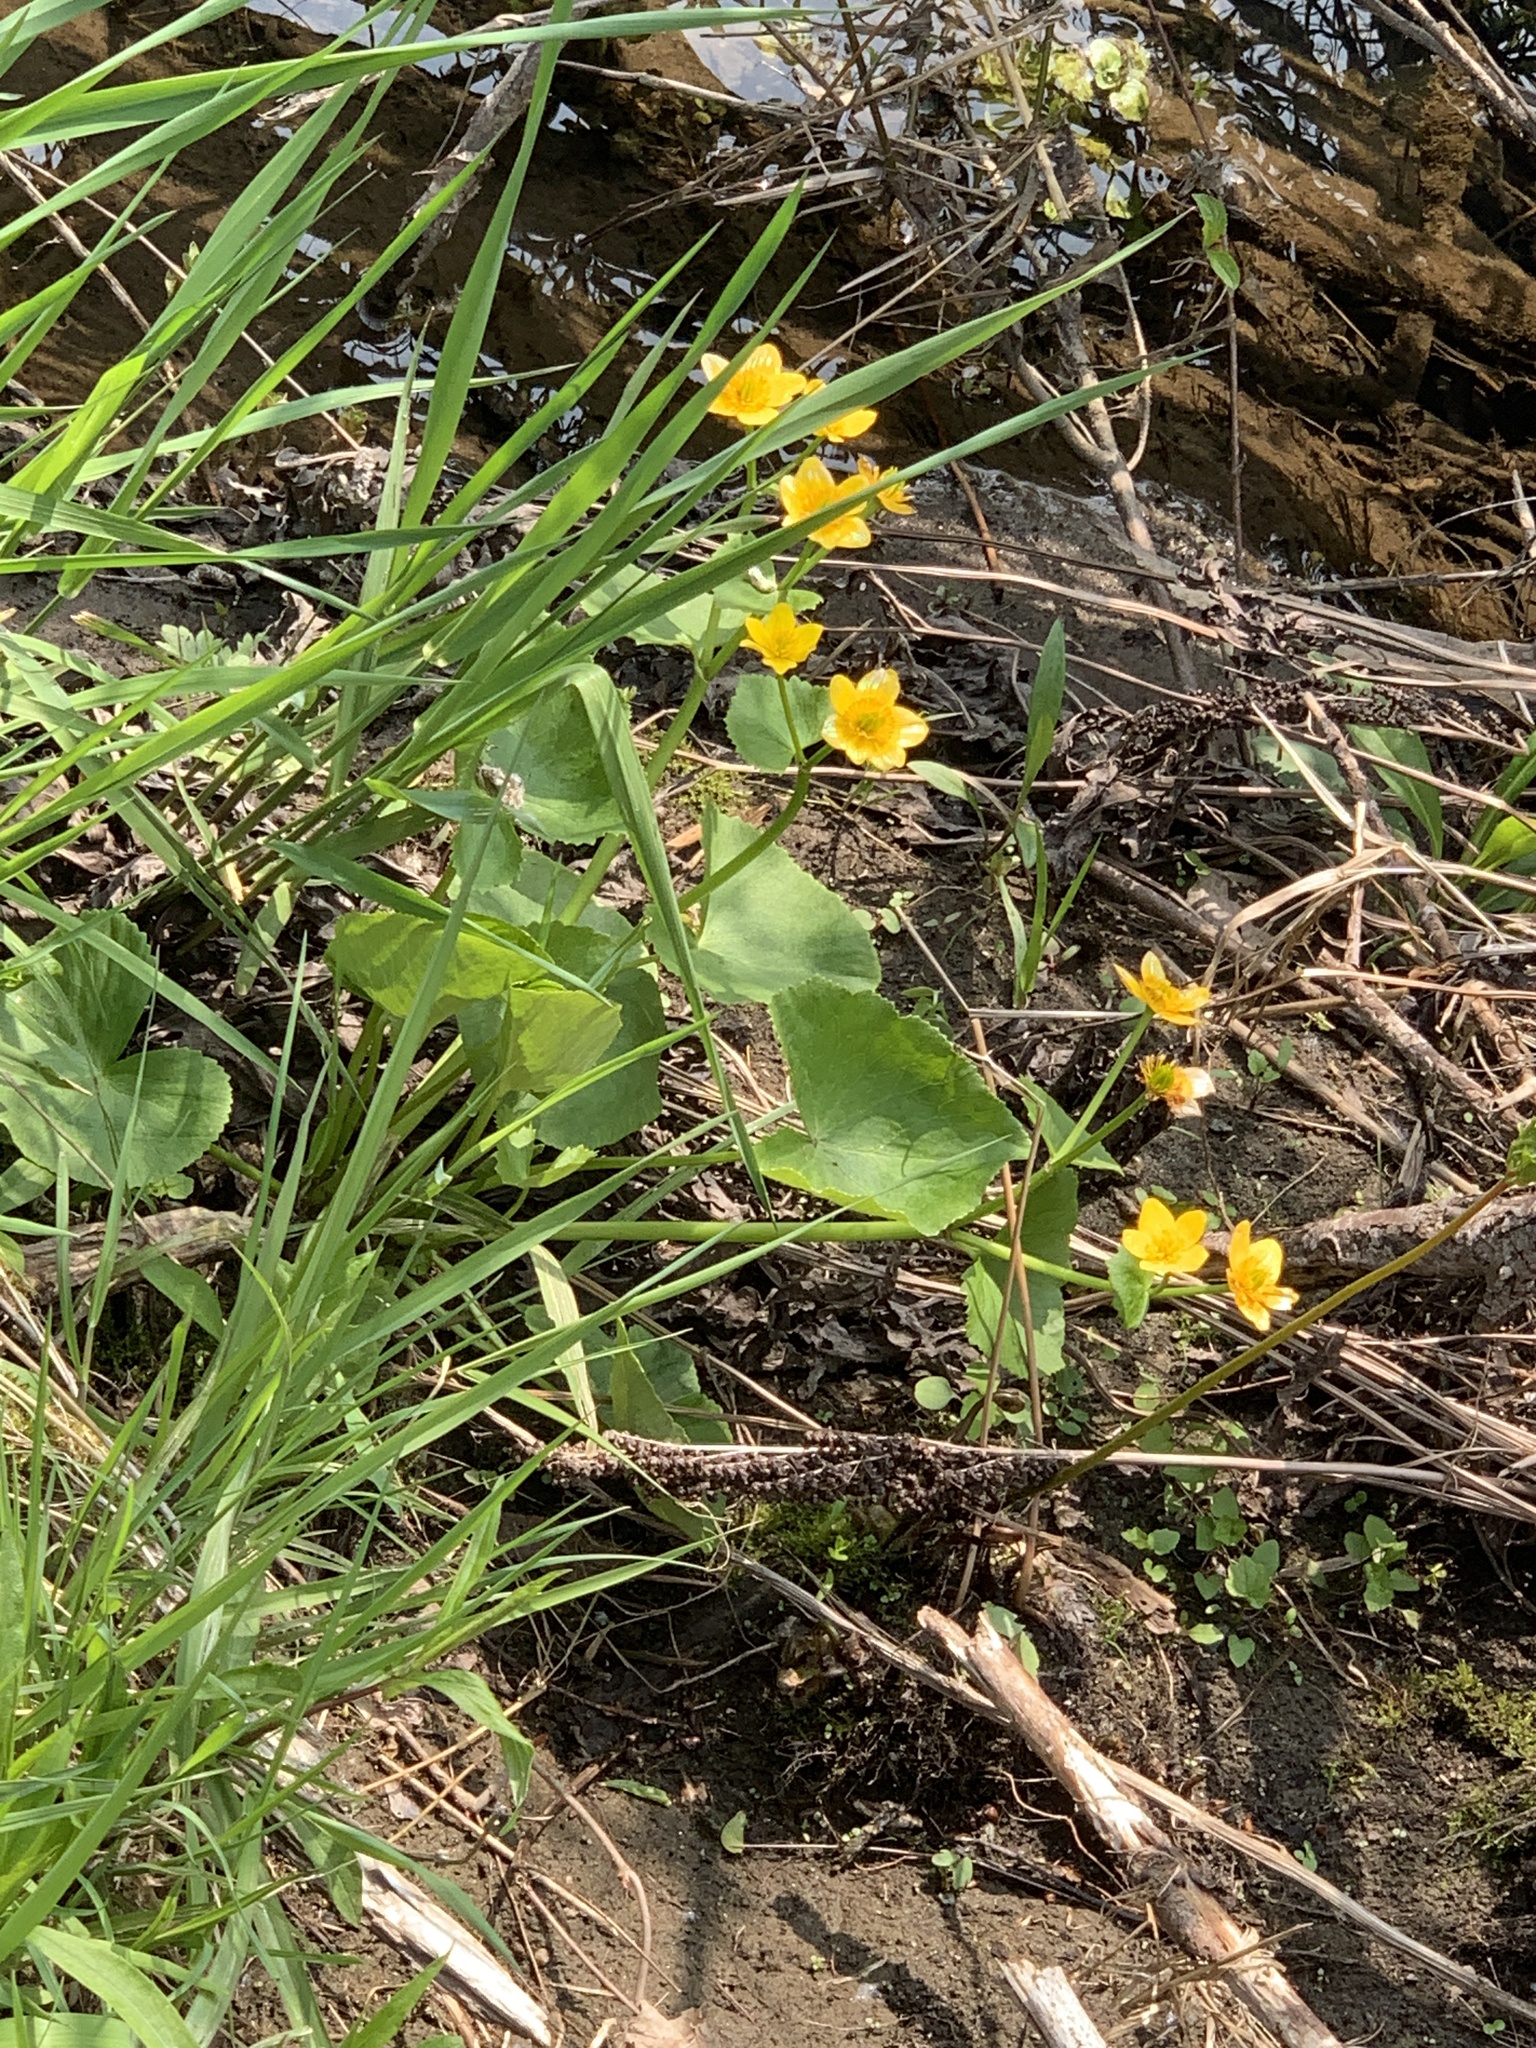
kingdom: Plantae
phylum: Tracheophyta
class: Magnoliopsida
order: Ranunculales
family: Ranunculaceae
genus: Caltha
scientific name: Caltha palustris
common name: Marsh marigold
